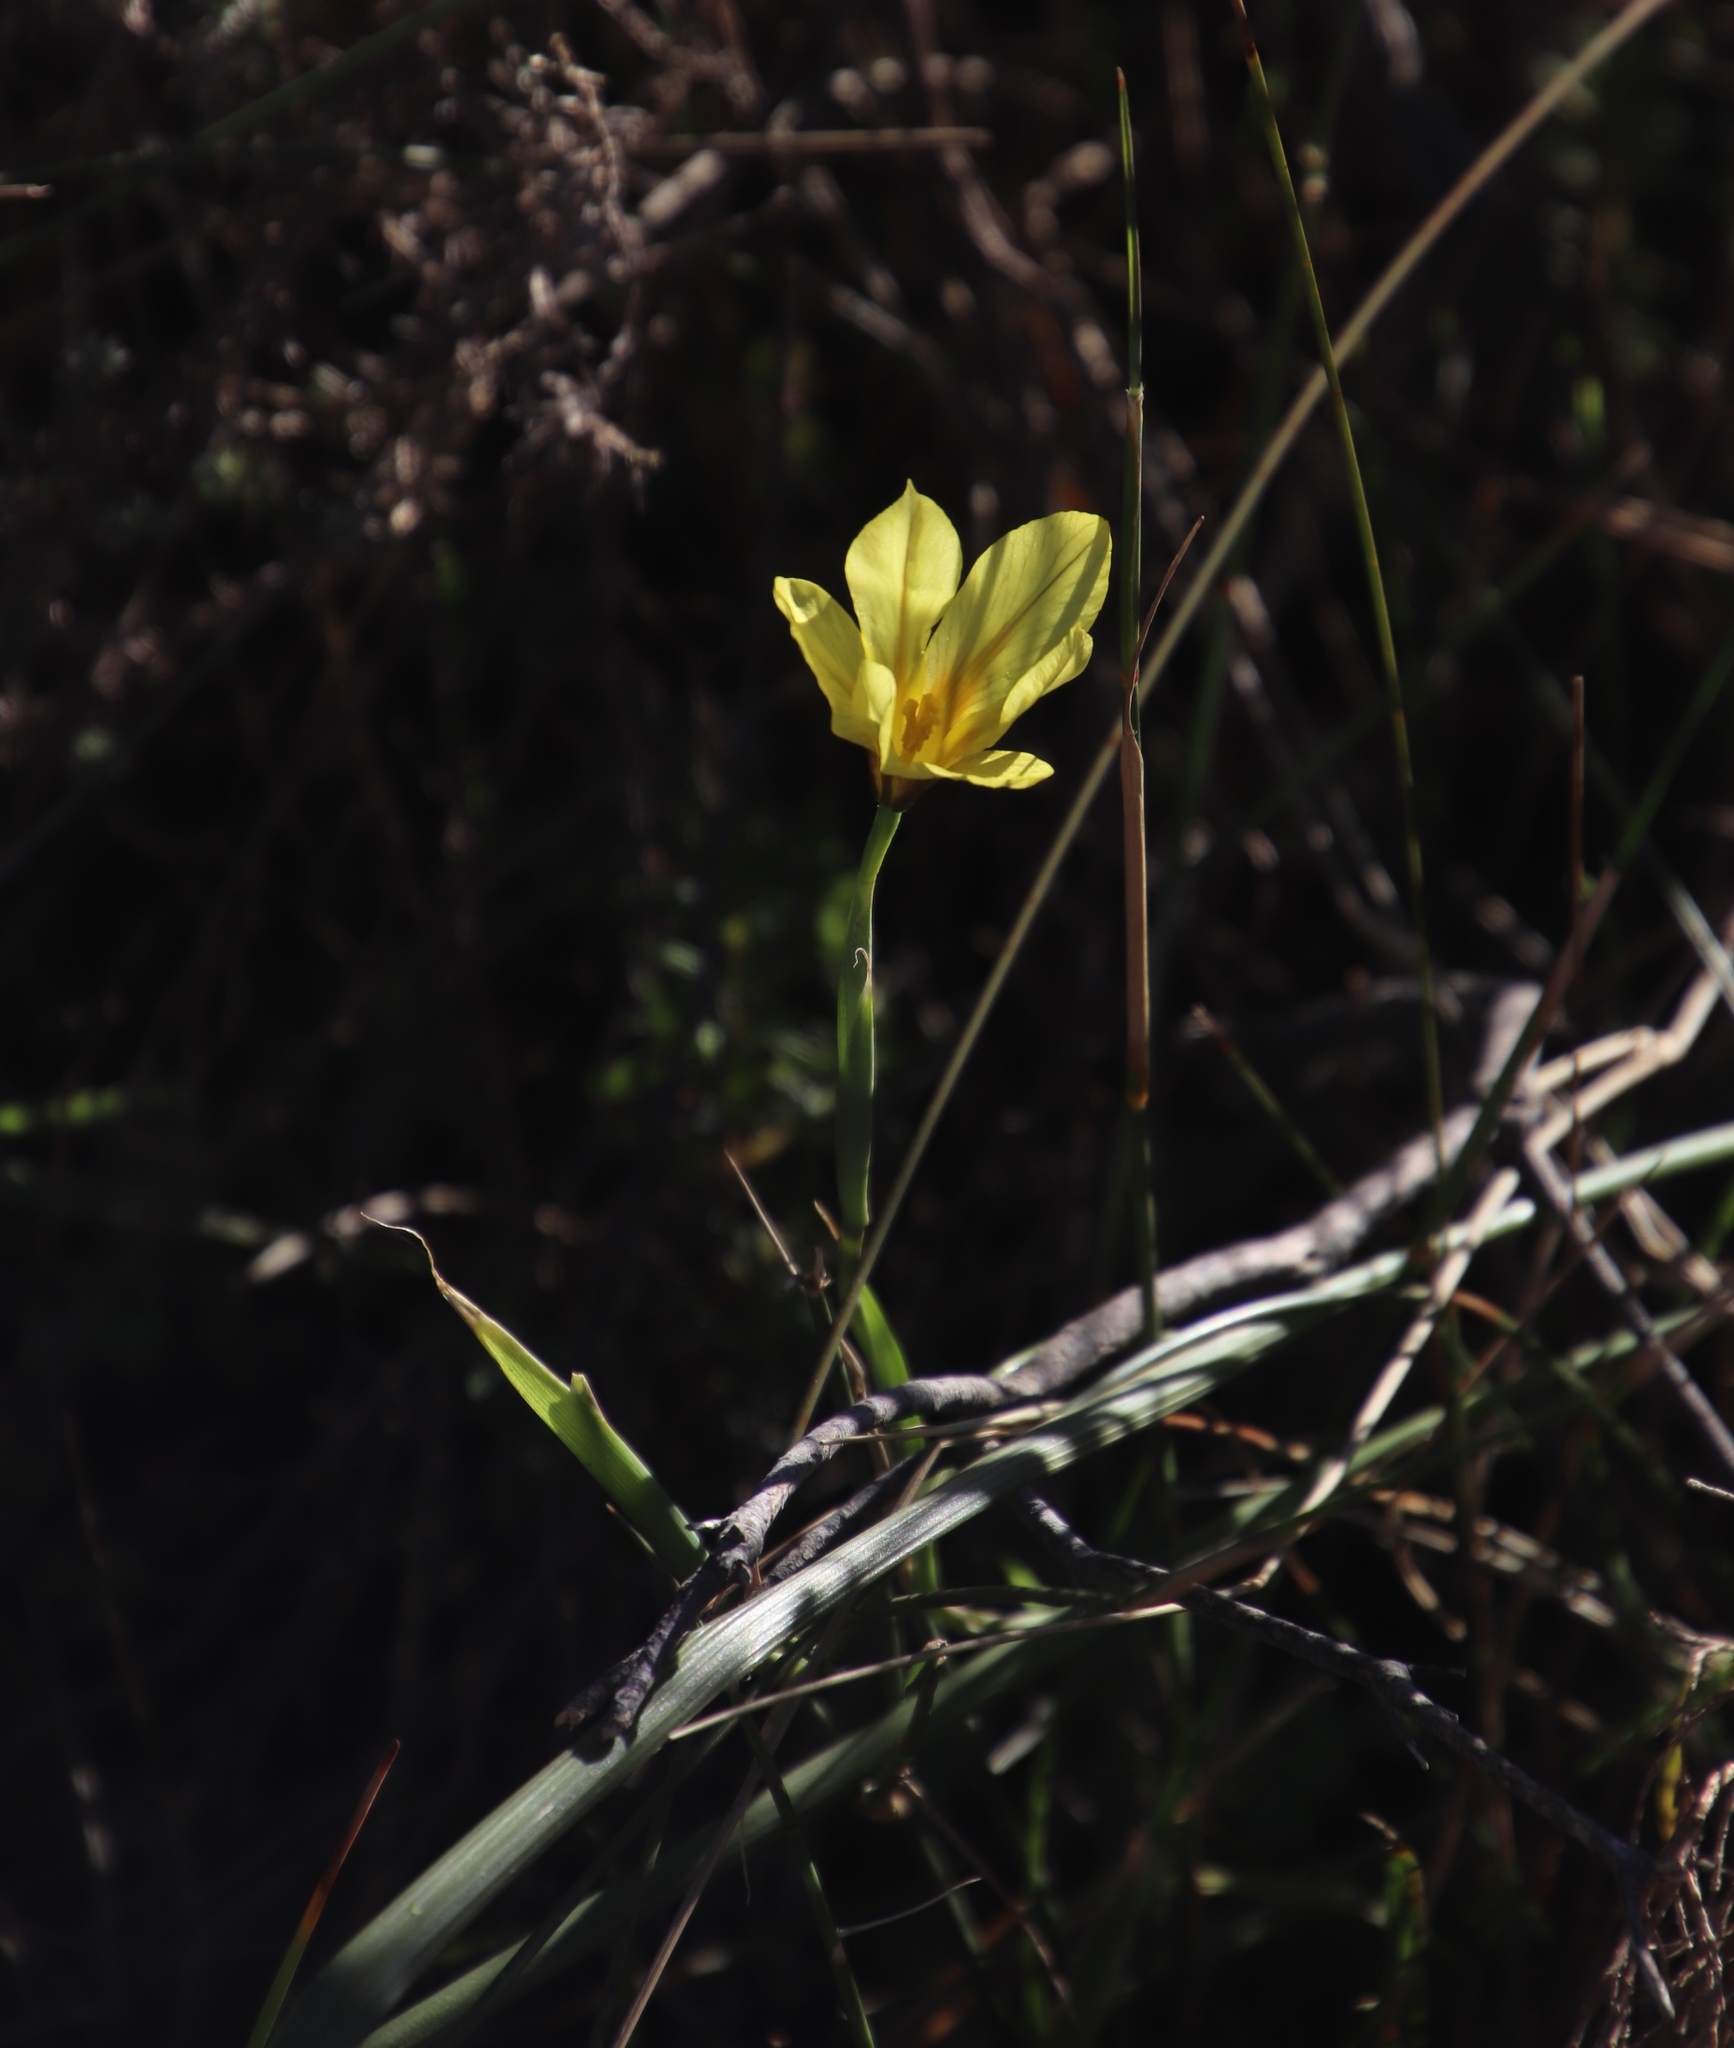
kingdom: Plantae
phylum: Tracheophyta
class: Liliopsida
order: Asparagales
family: Iridaceae
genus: Moraea
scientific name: Moraea collina
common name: Cape-tulip
